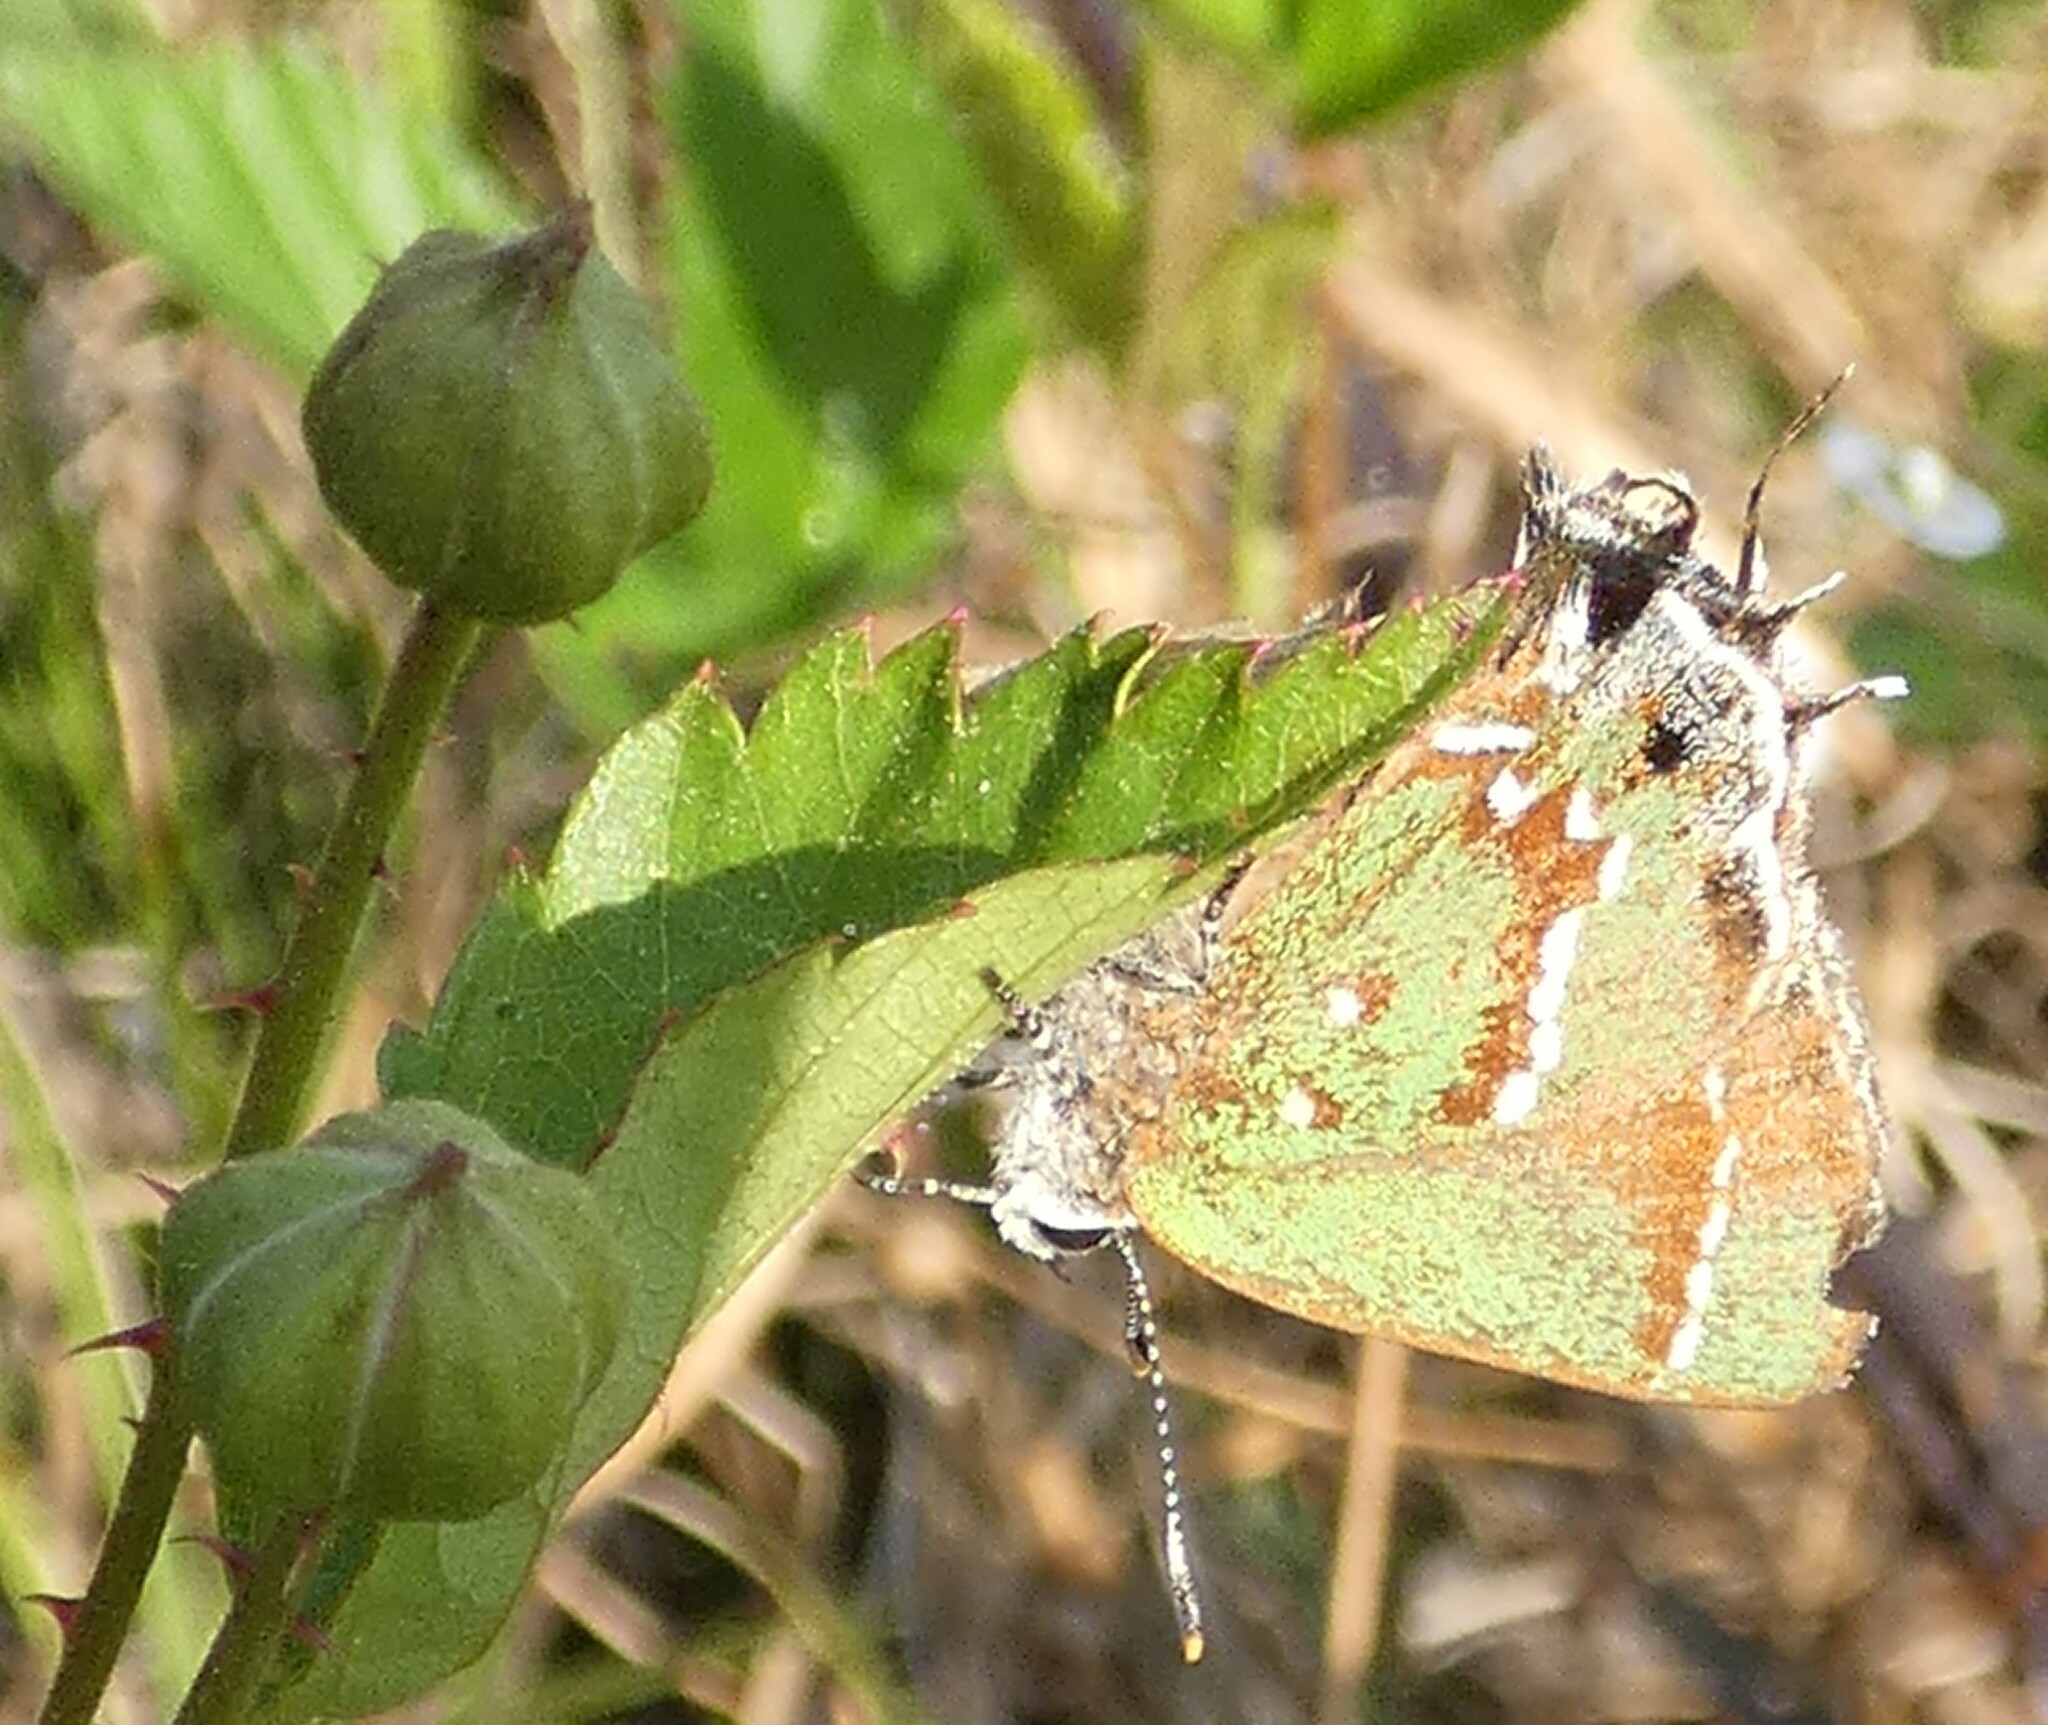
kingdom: Animalia
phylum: Arthropoda
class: Insecta
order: Lepidoptera
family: Lycaenidae
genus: Mitoura
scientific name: Mitoura gryneus
